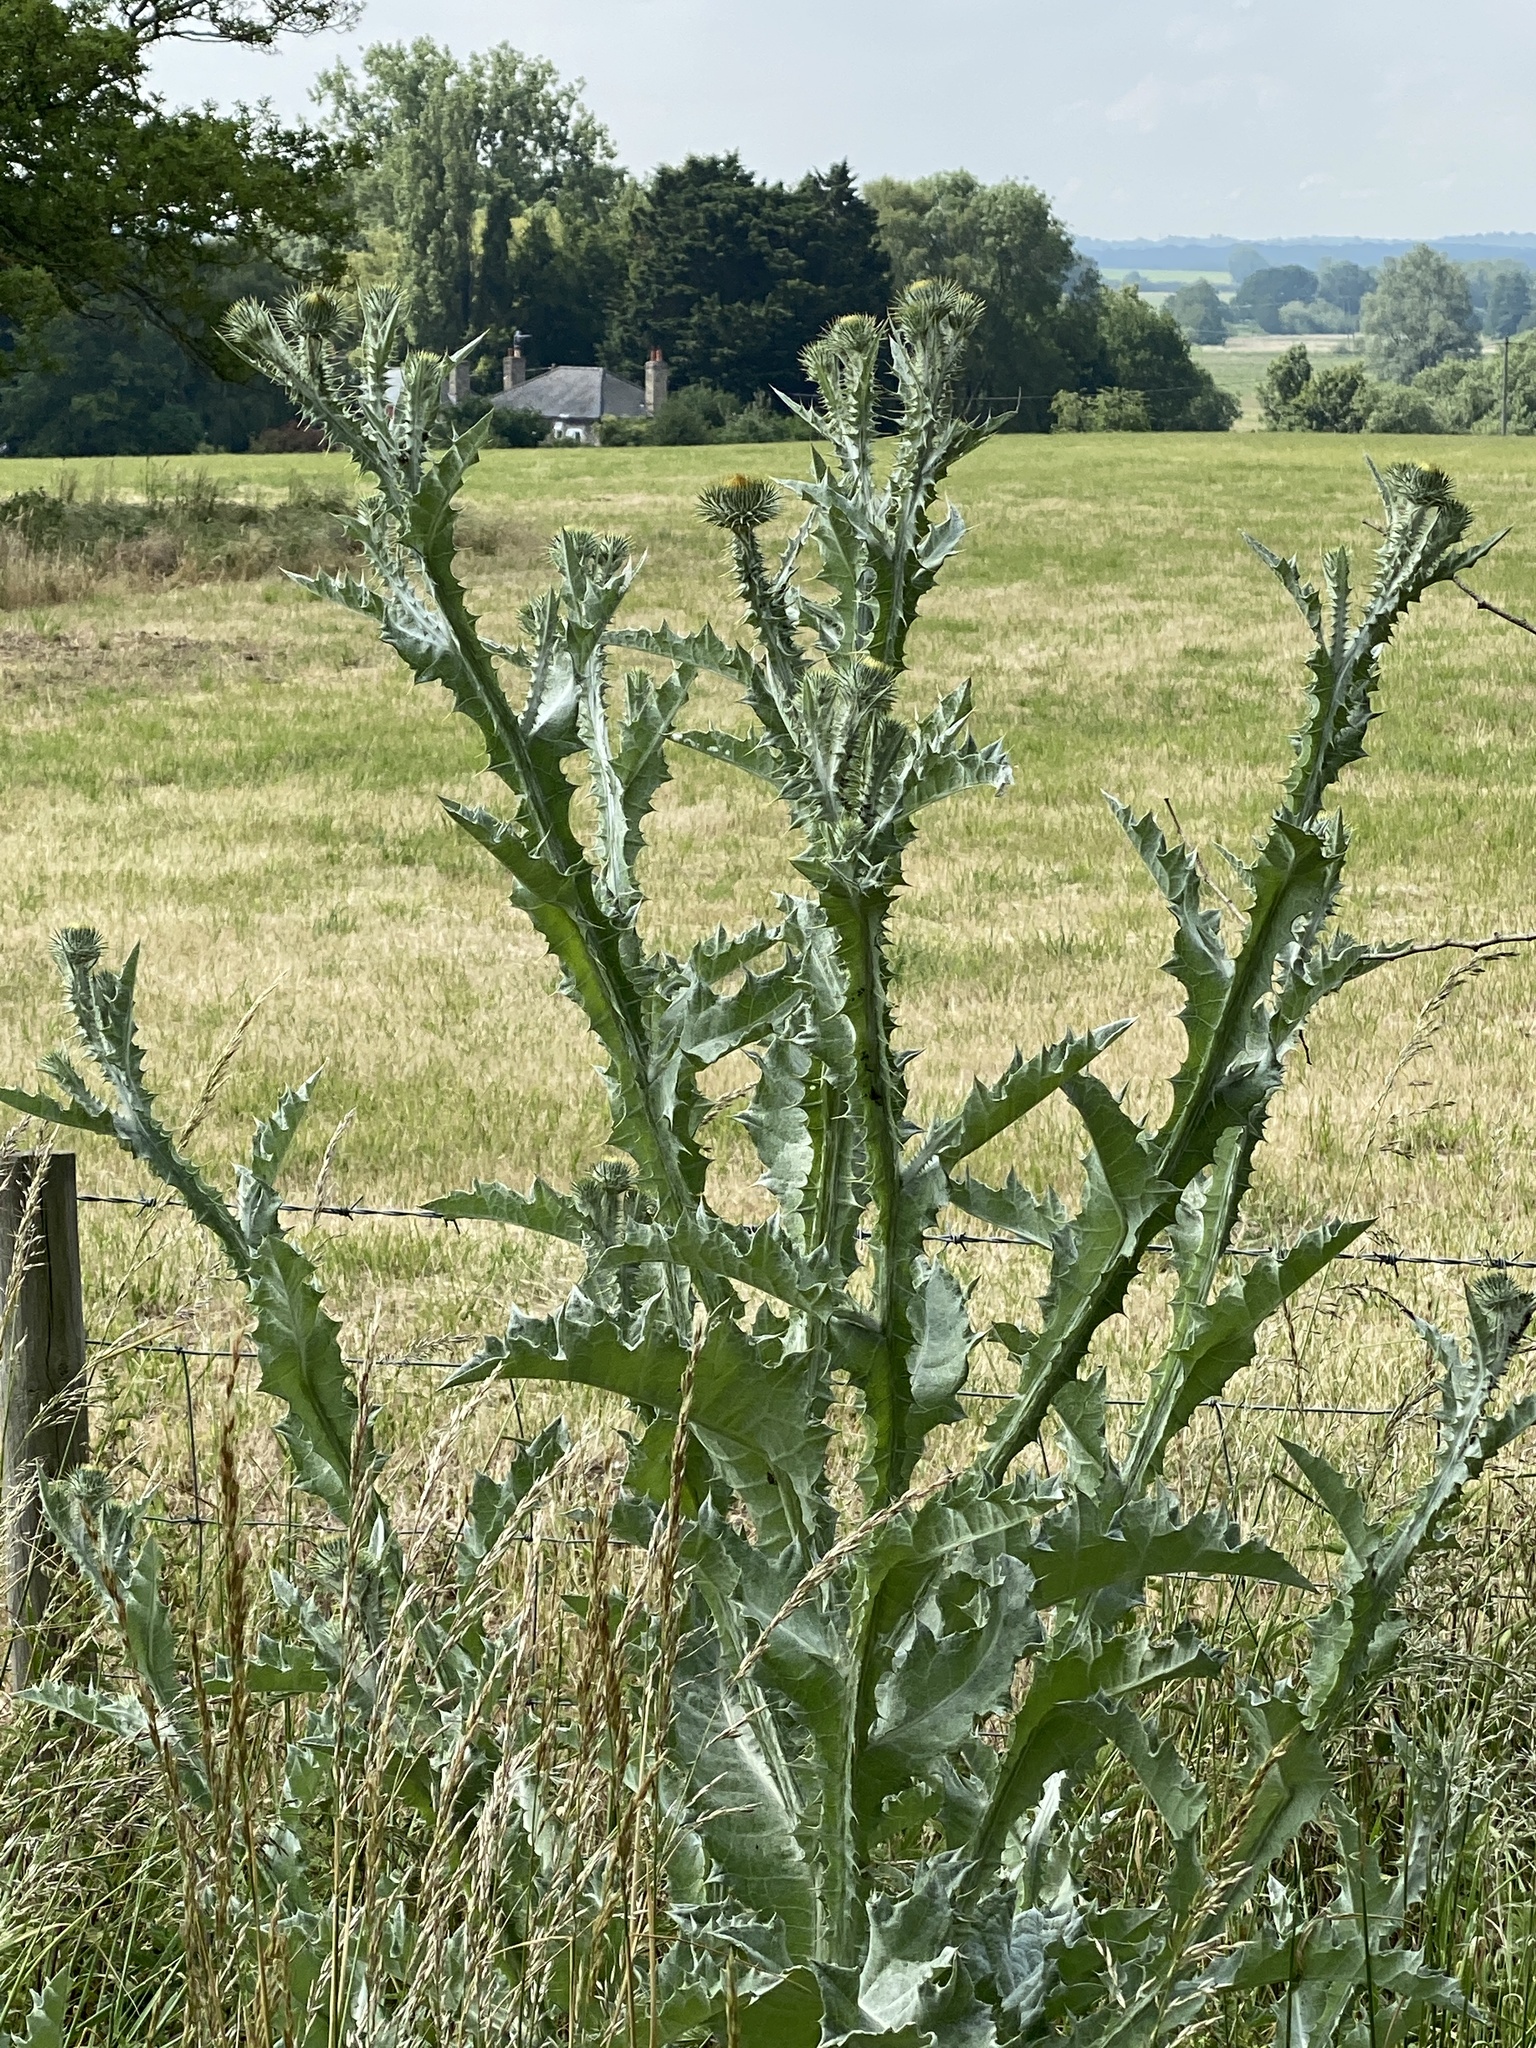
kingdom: Plantae
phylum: Tracheophyta
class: Magnoliopsida
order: Asterales
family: Asteraceae
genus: Onopordum
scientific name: Onopordum acanthium
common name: Scotch thistle
